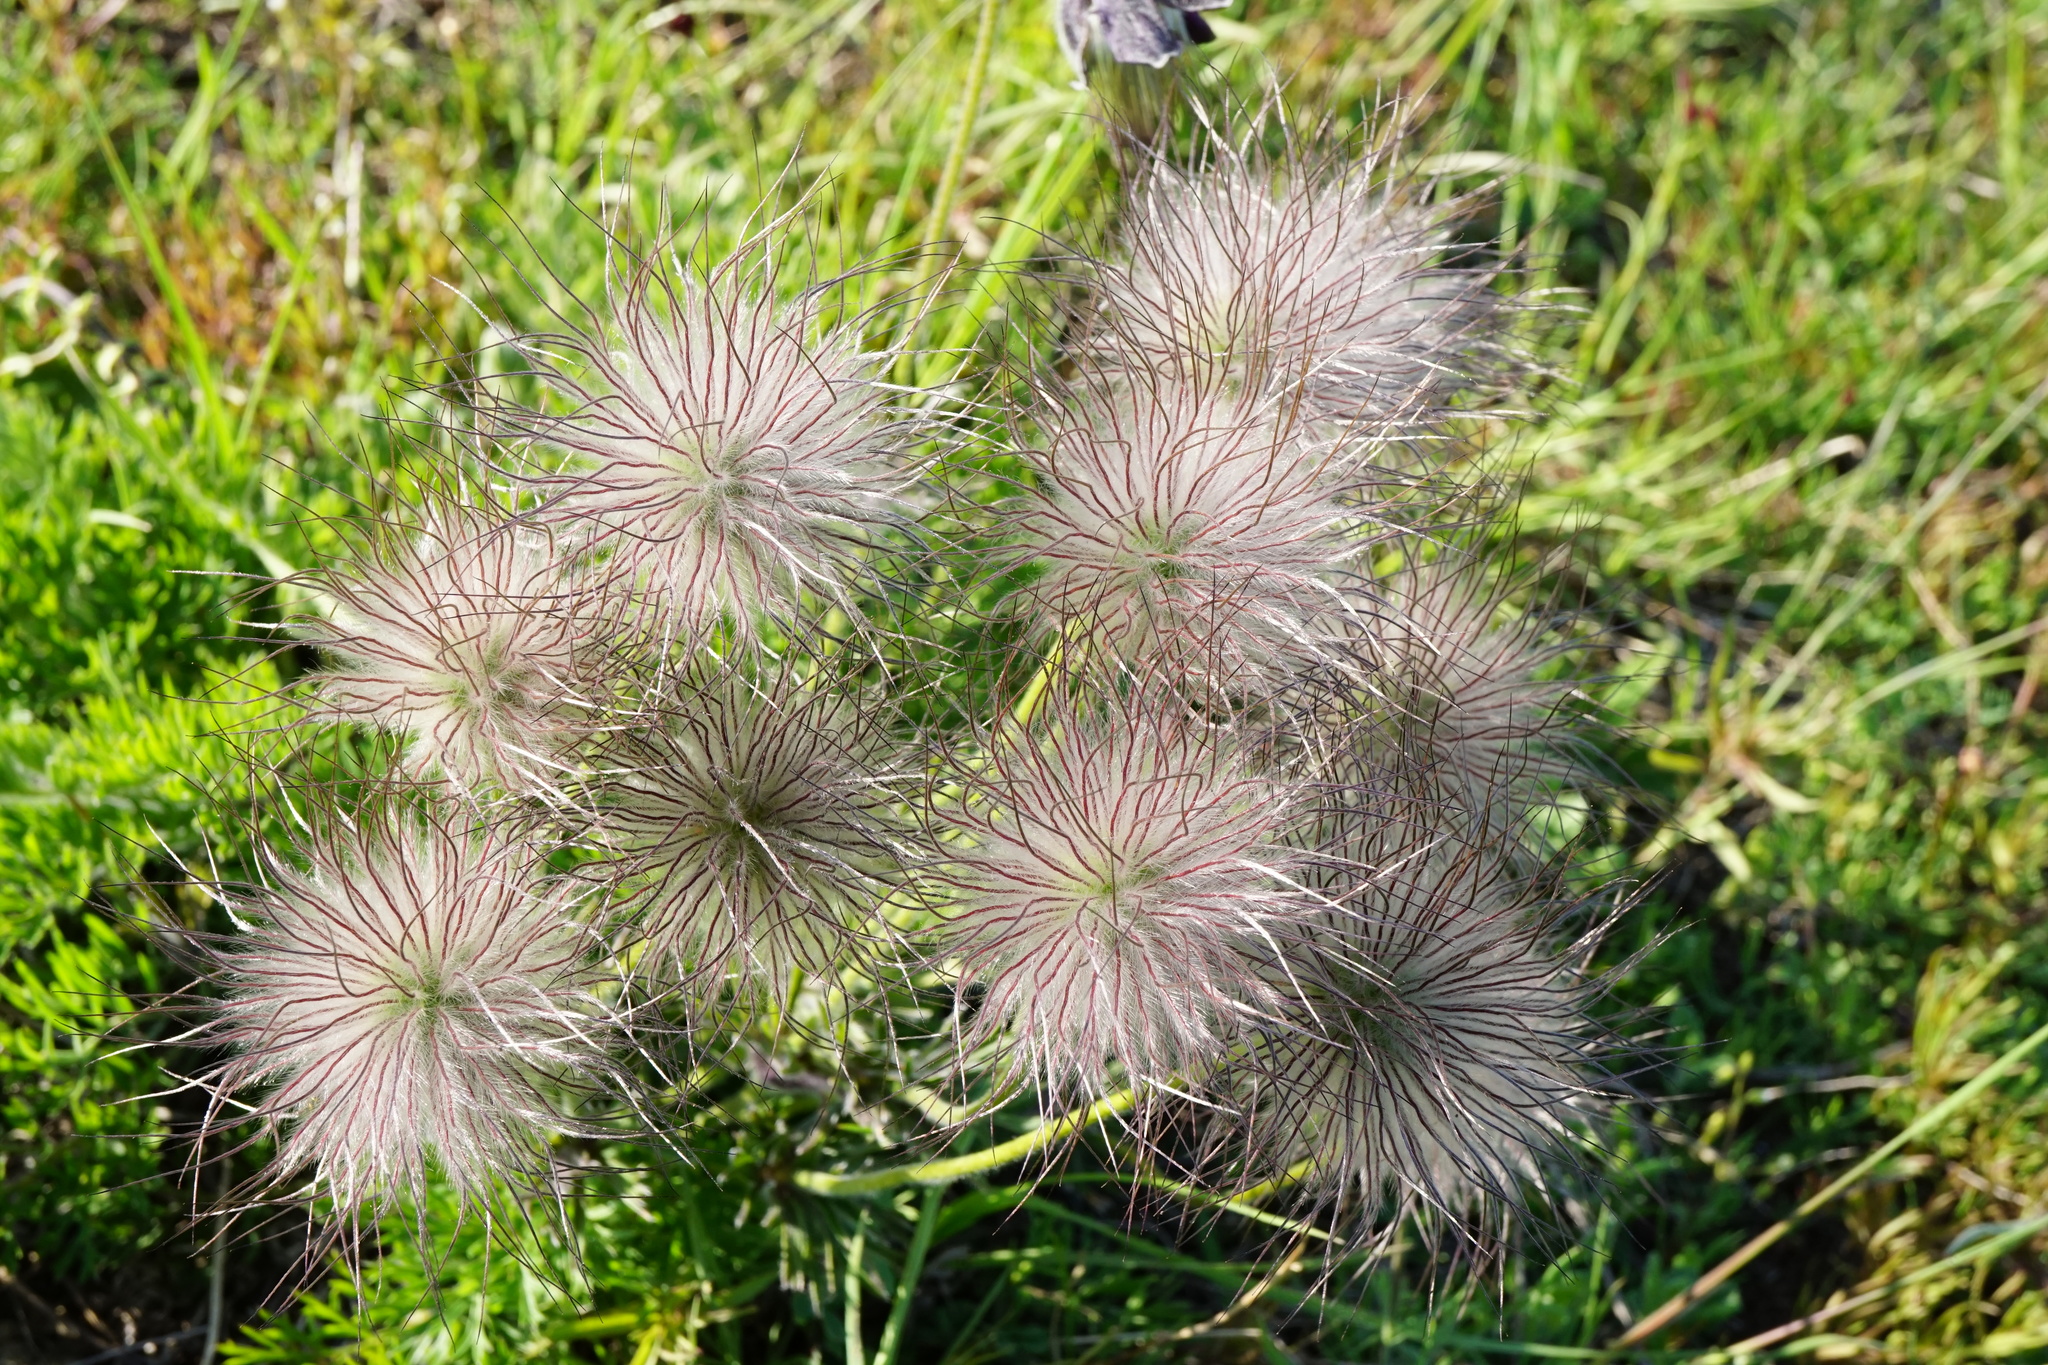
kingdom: Plantae
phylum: Tracheophyta
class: Magnoliopsida
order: Ranunculales
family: Ranunculaceae
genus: Pulsatilla
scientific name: Pulsatilla pratensis
